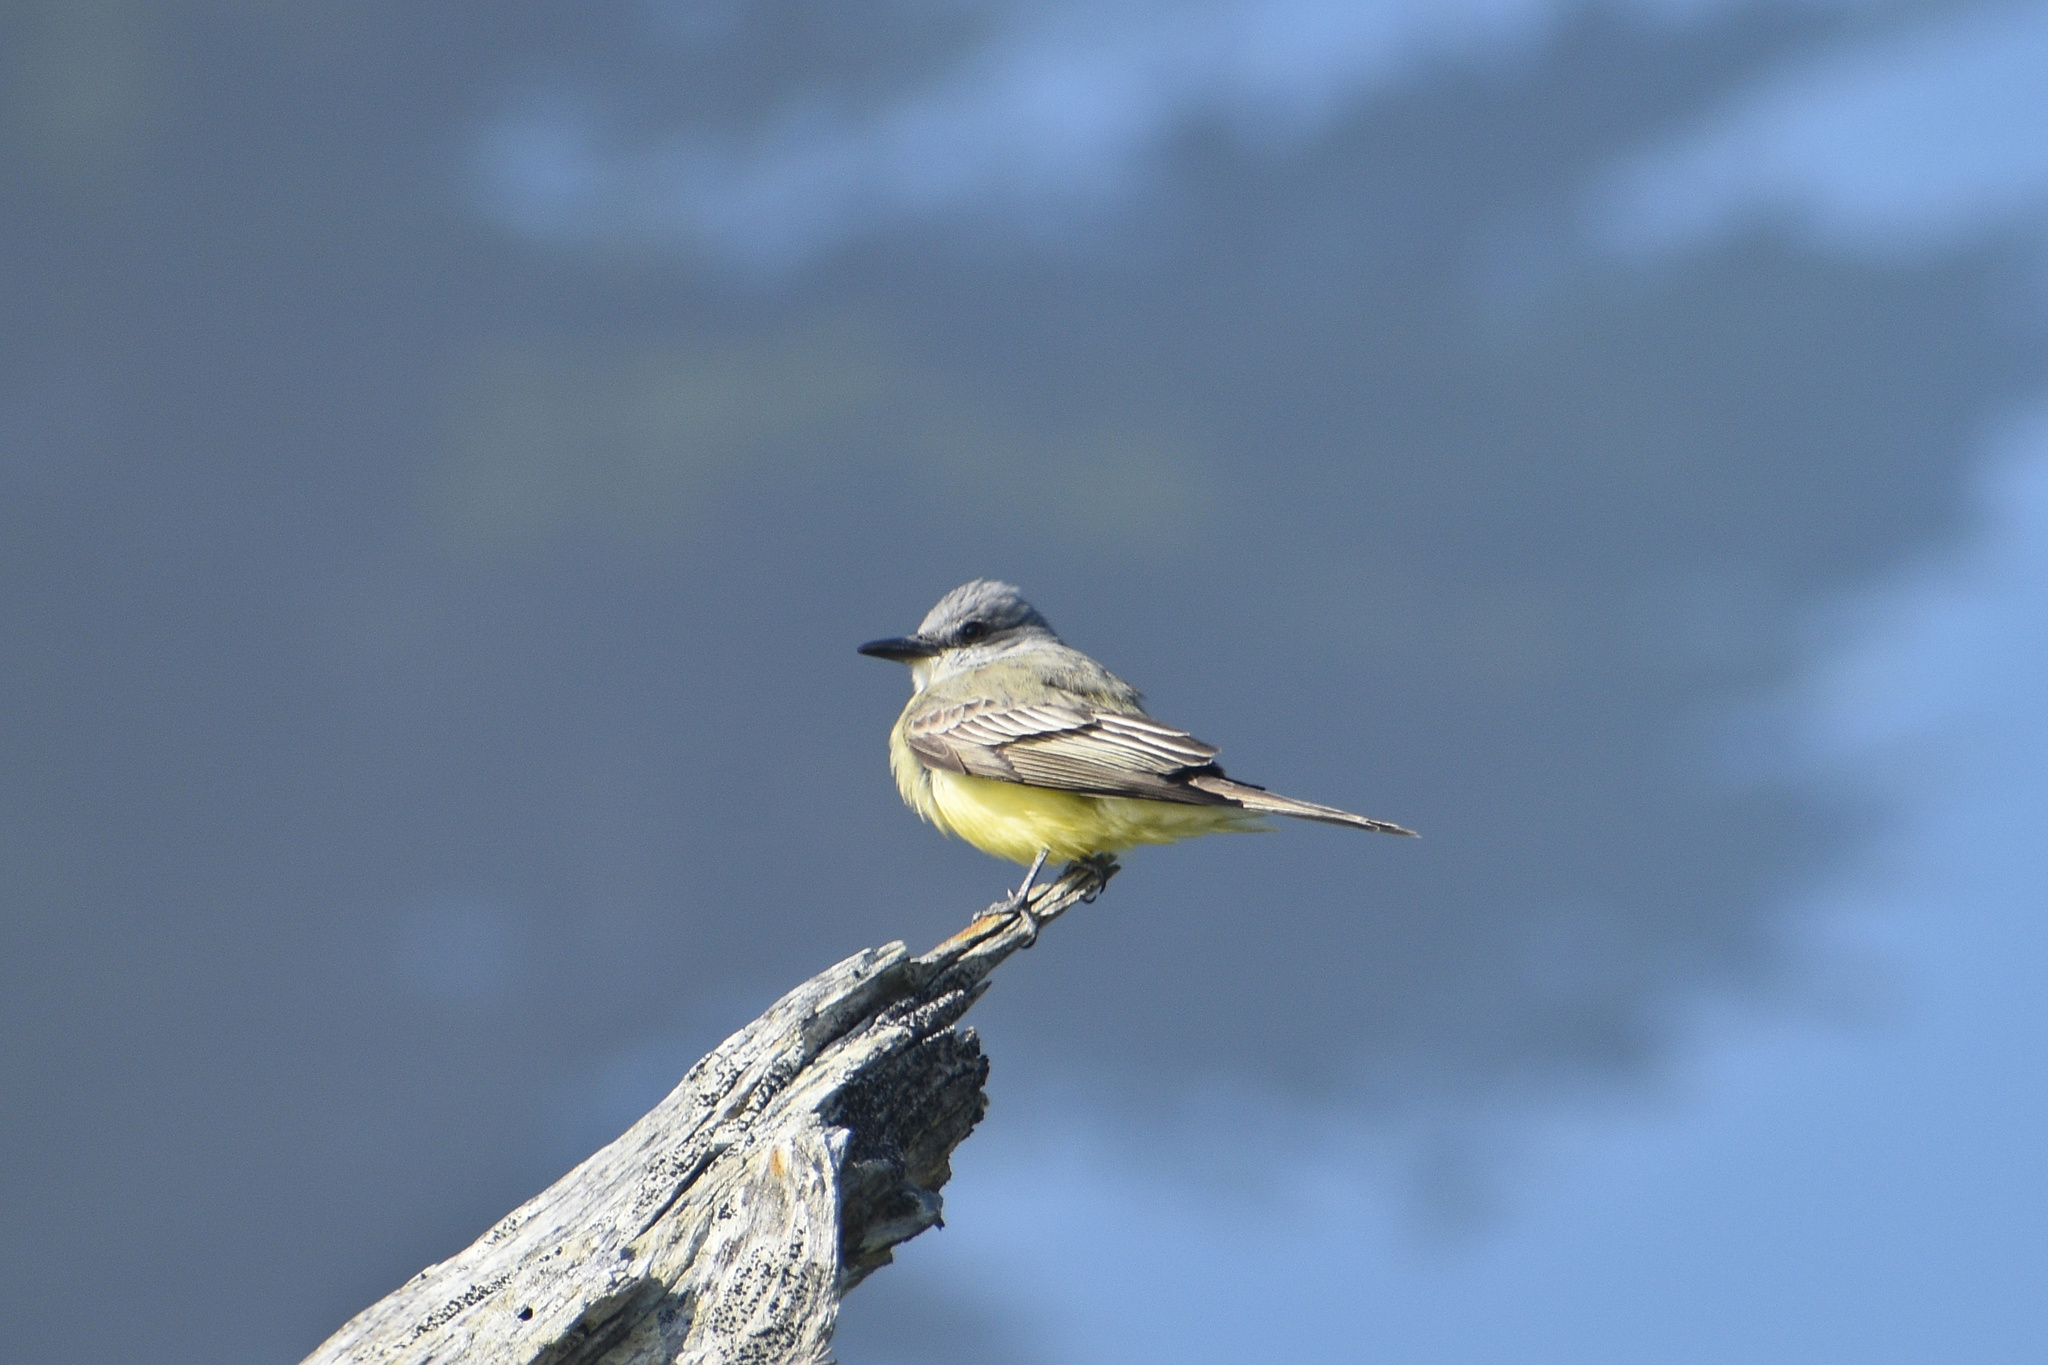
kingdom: Animalia
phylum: Chordata
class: Aves
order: Passeriformes
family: Tyrannidae
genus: Tyrannus
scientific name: Tyrannus melancholicus
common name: Tropical kingbird
